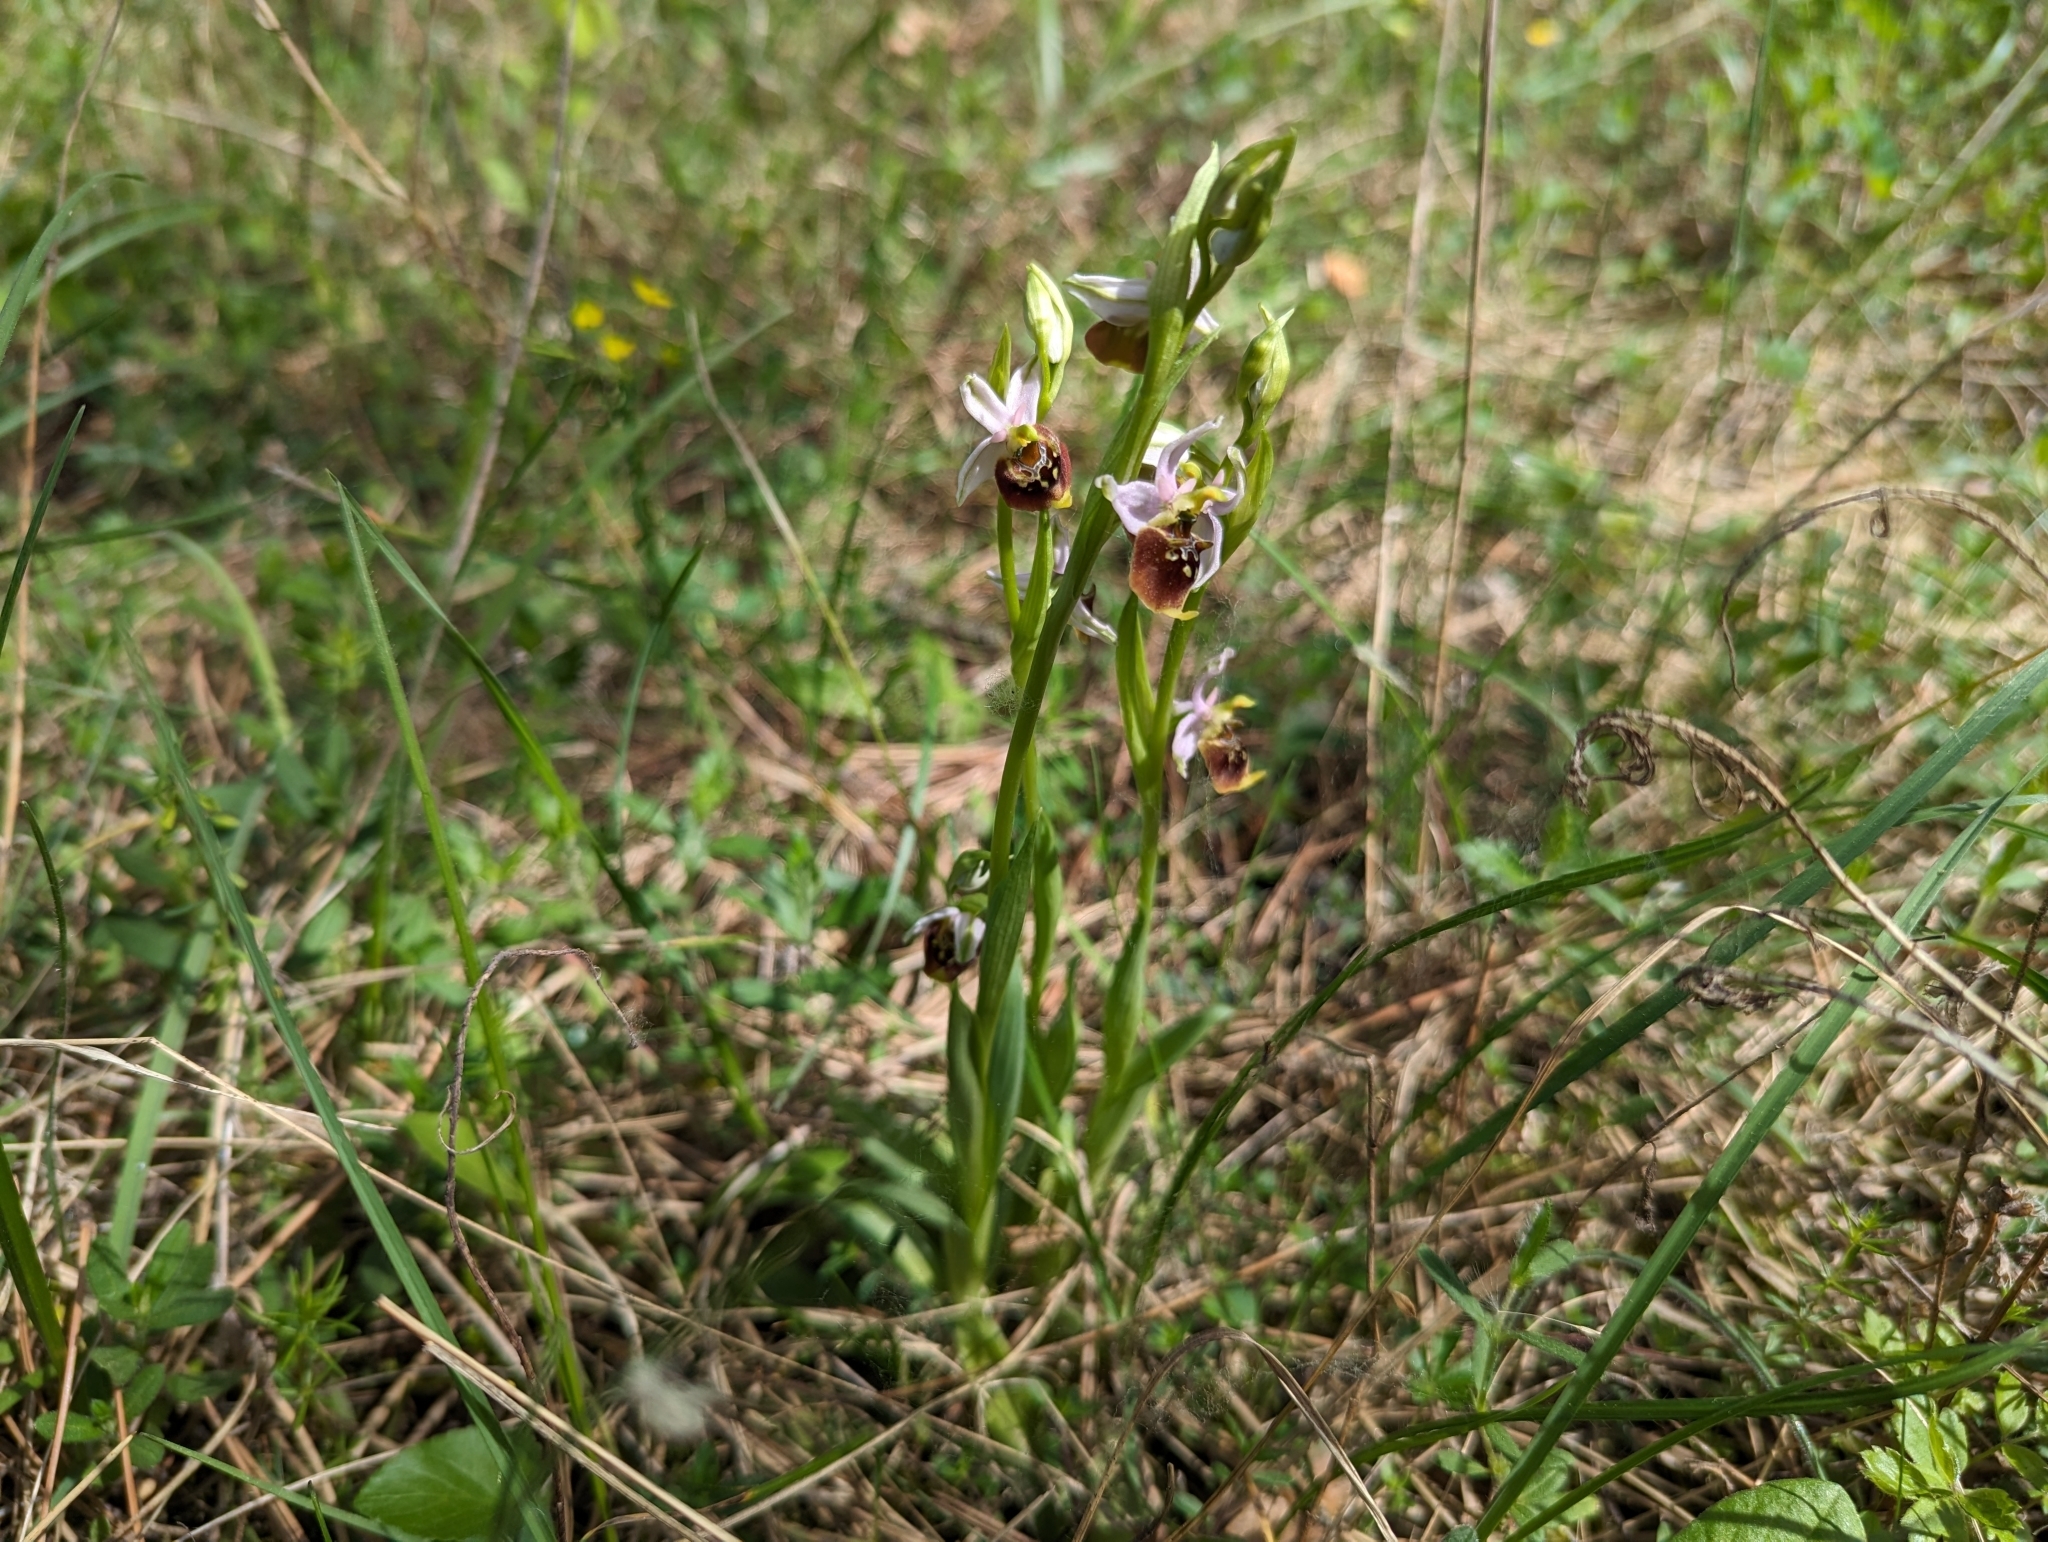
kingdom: Plantae
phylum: Tracheophyta
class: Liliopsida
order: Asparagales
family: Orchidaceae
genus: Ophrys
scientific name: Ophrys holosericea
